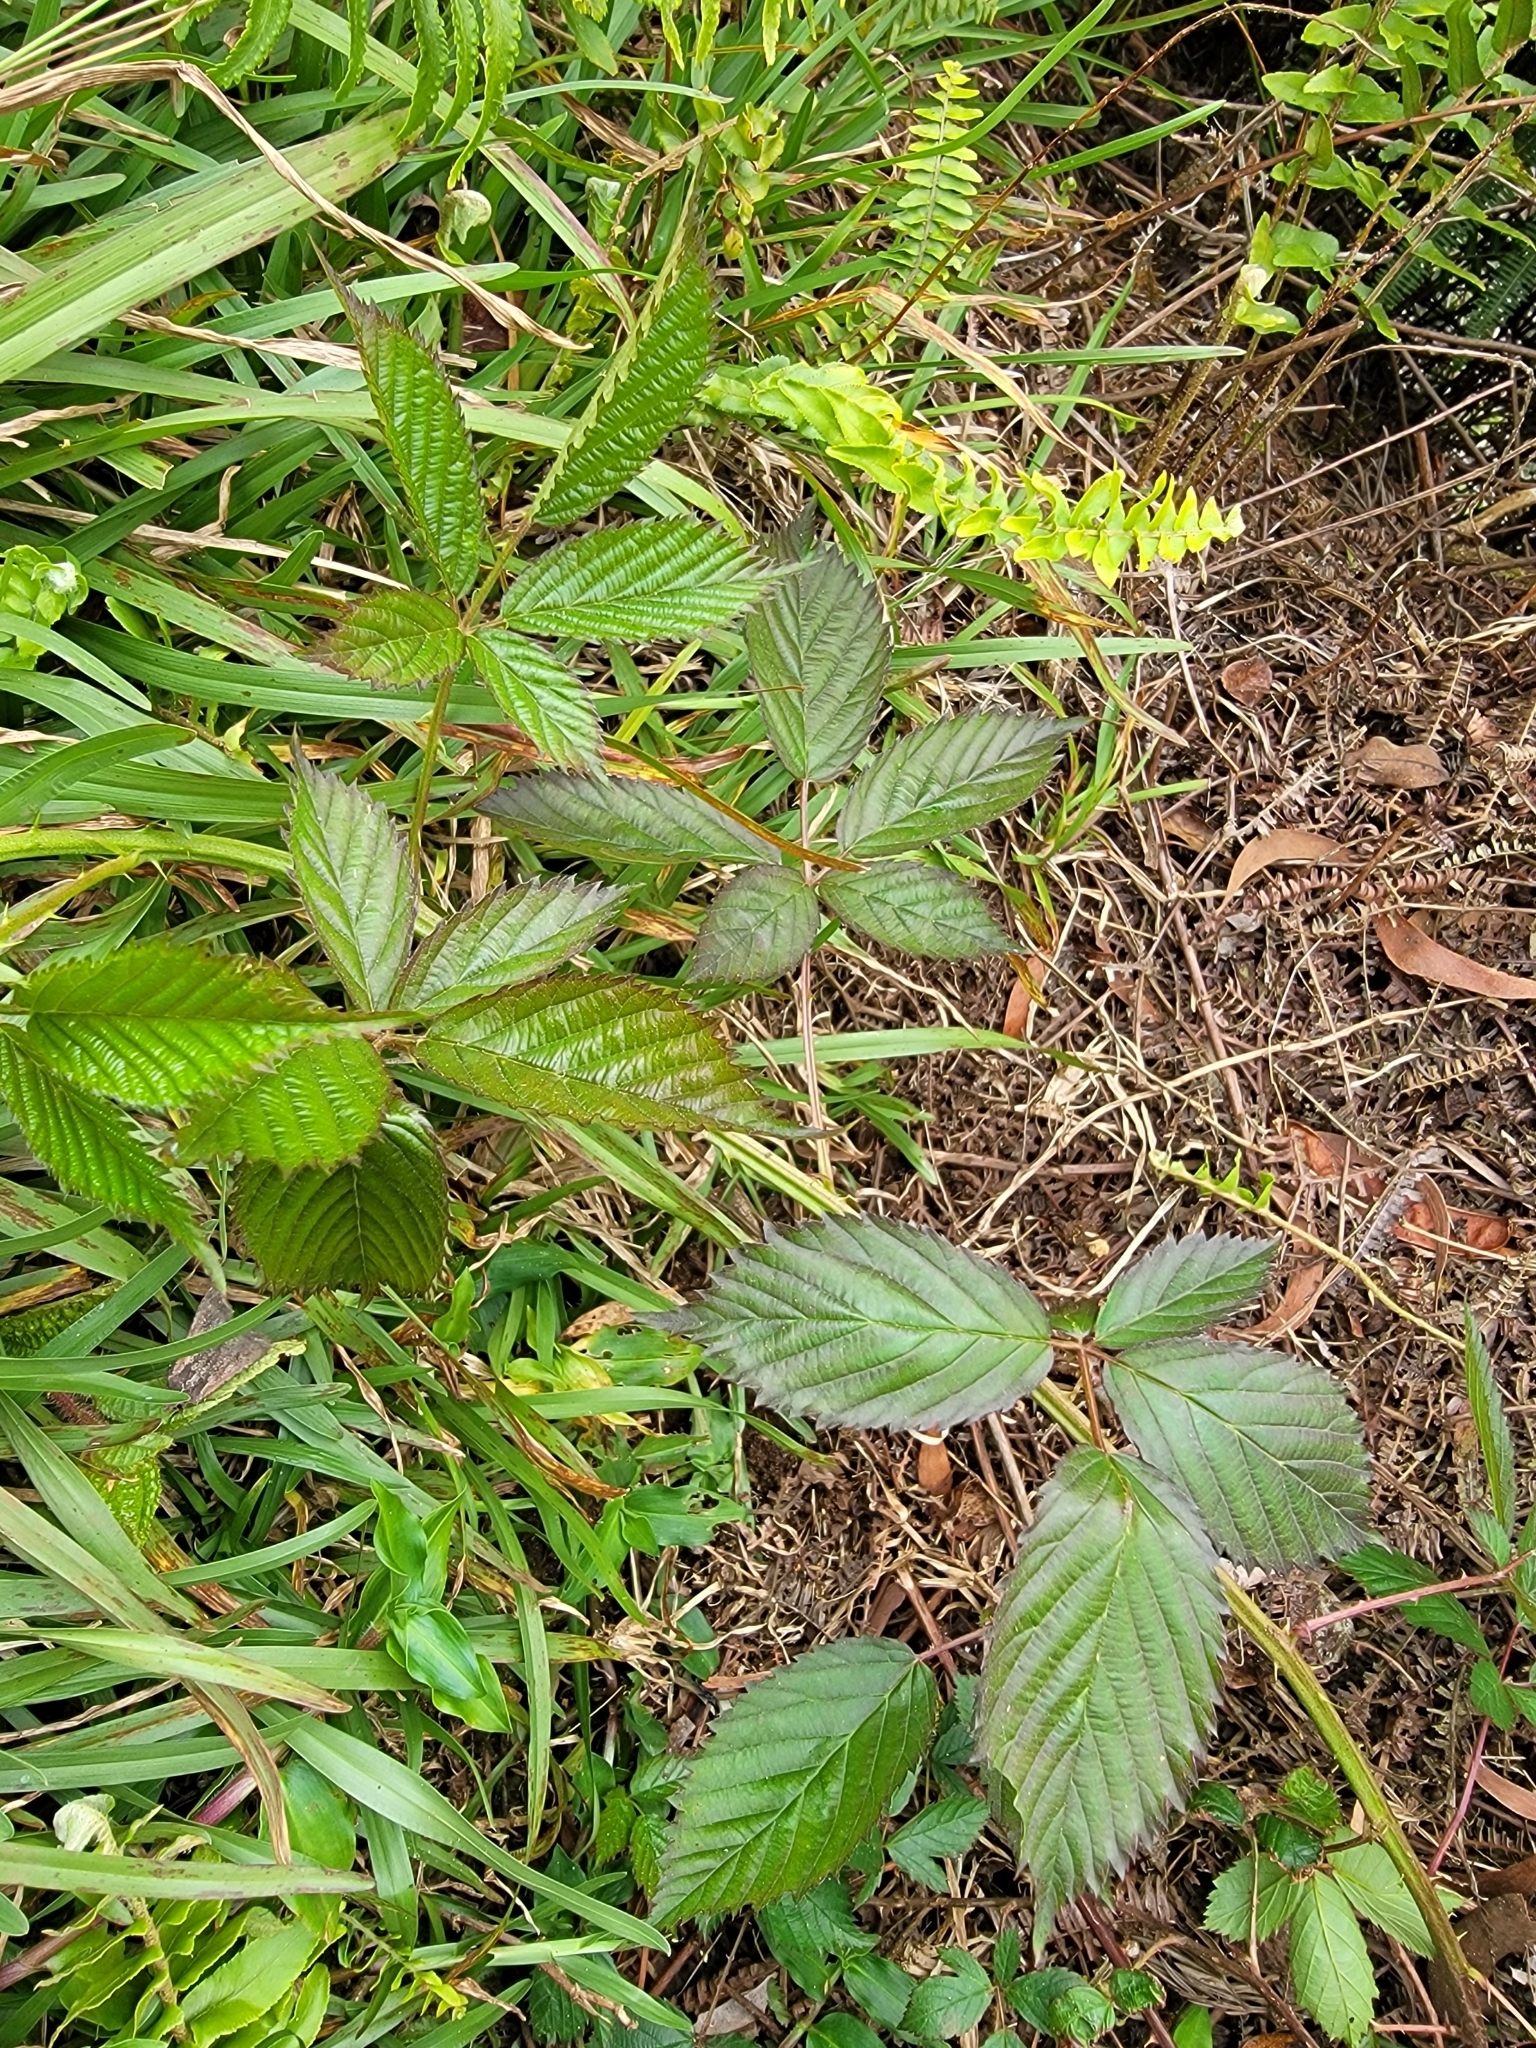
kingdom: Plantae
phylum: Tracheophyta
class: Magnoliopsida
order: Rosales
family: Rosaceae
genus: Rubus
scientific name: Rubus argutus
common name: Sawtooth blackberry
